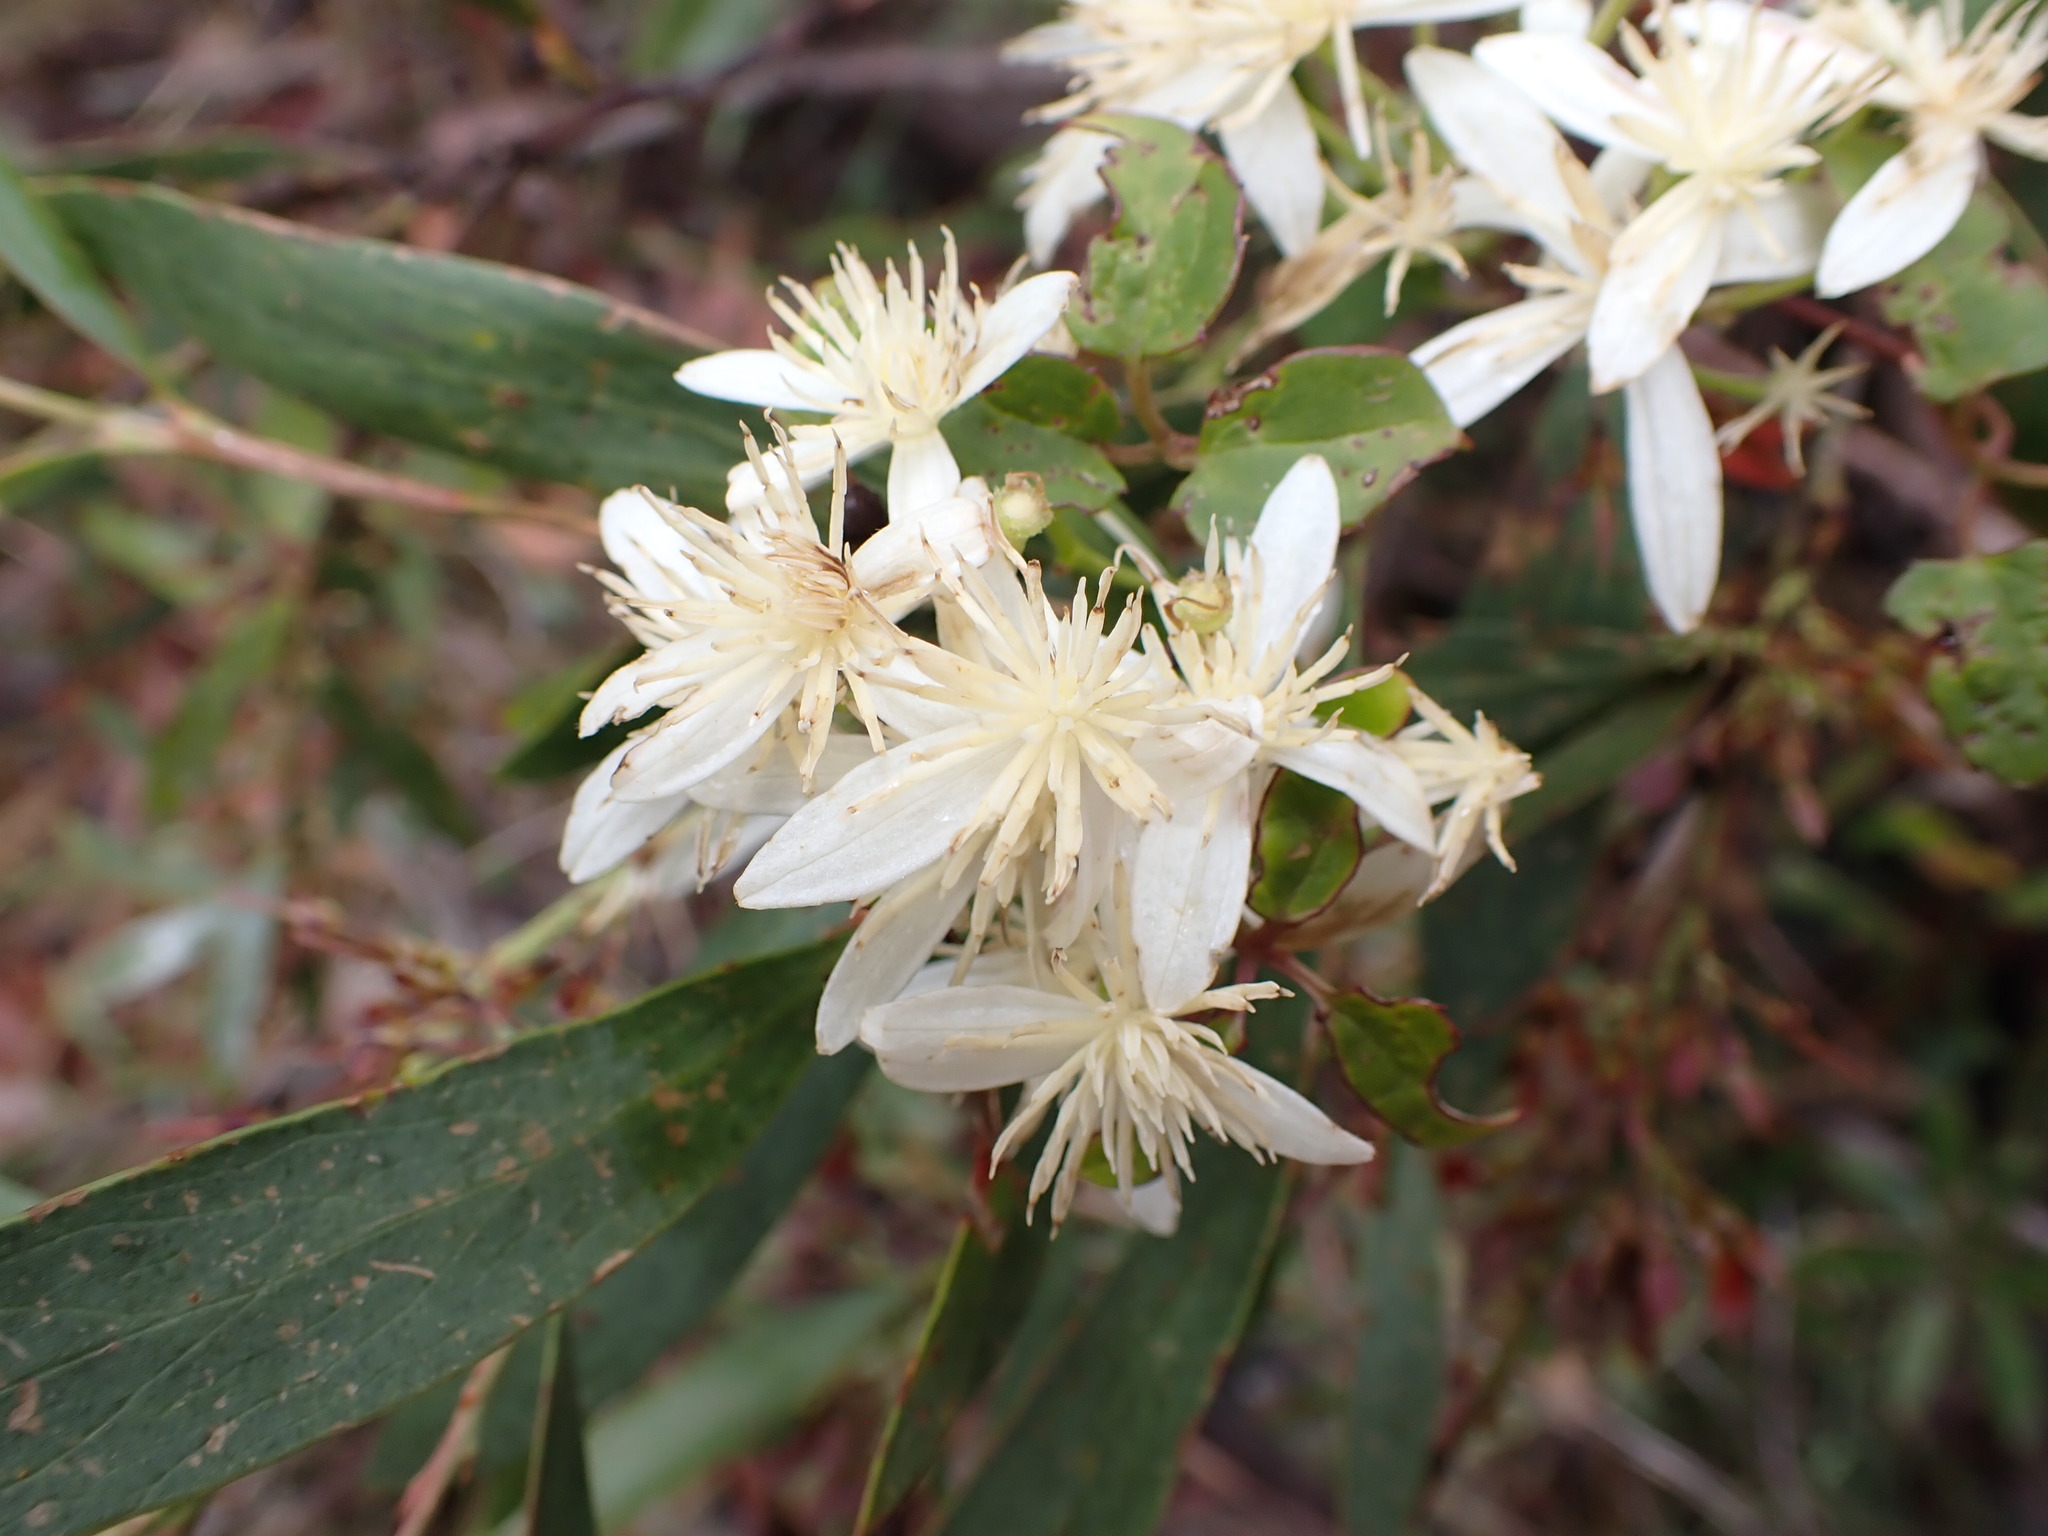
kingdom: Plantae
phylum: Tracheophyta
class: Magnoliopsida
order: Ranunculales
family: Ranunculaceae
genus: Clematis
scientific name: Clematis aristata
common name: Mountain clematis
